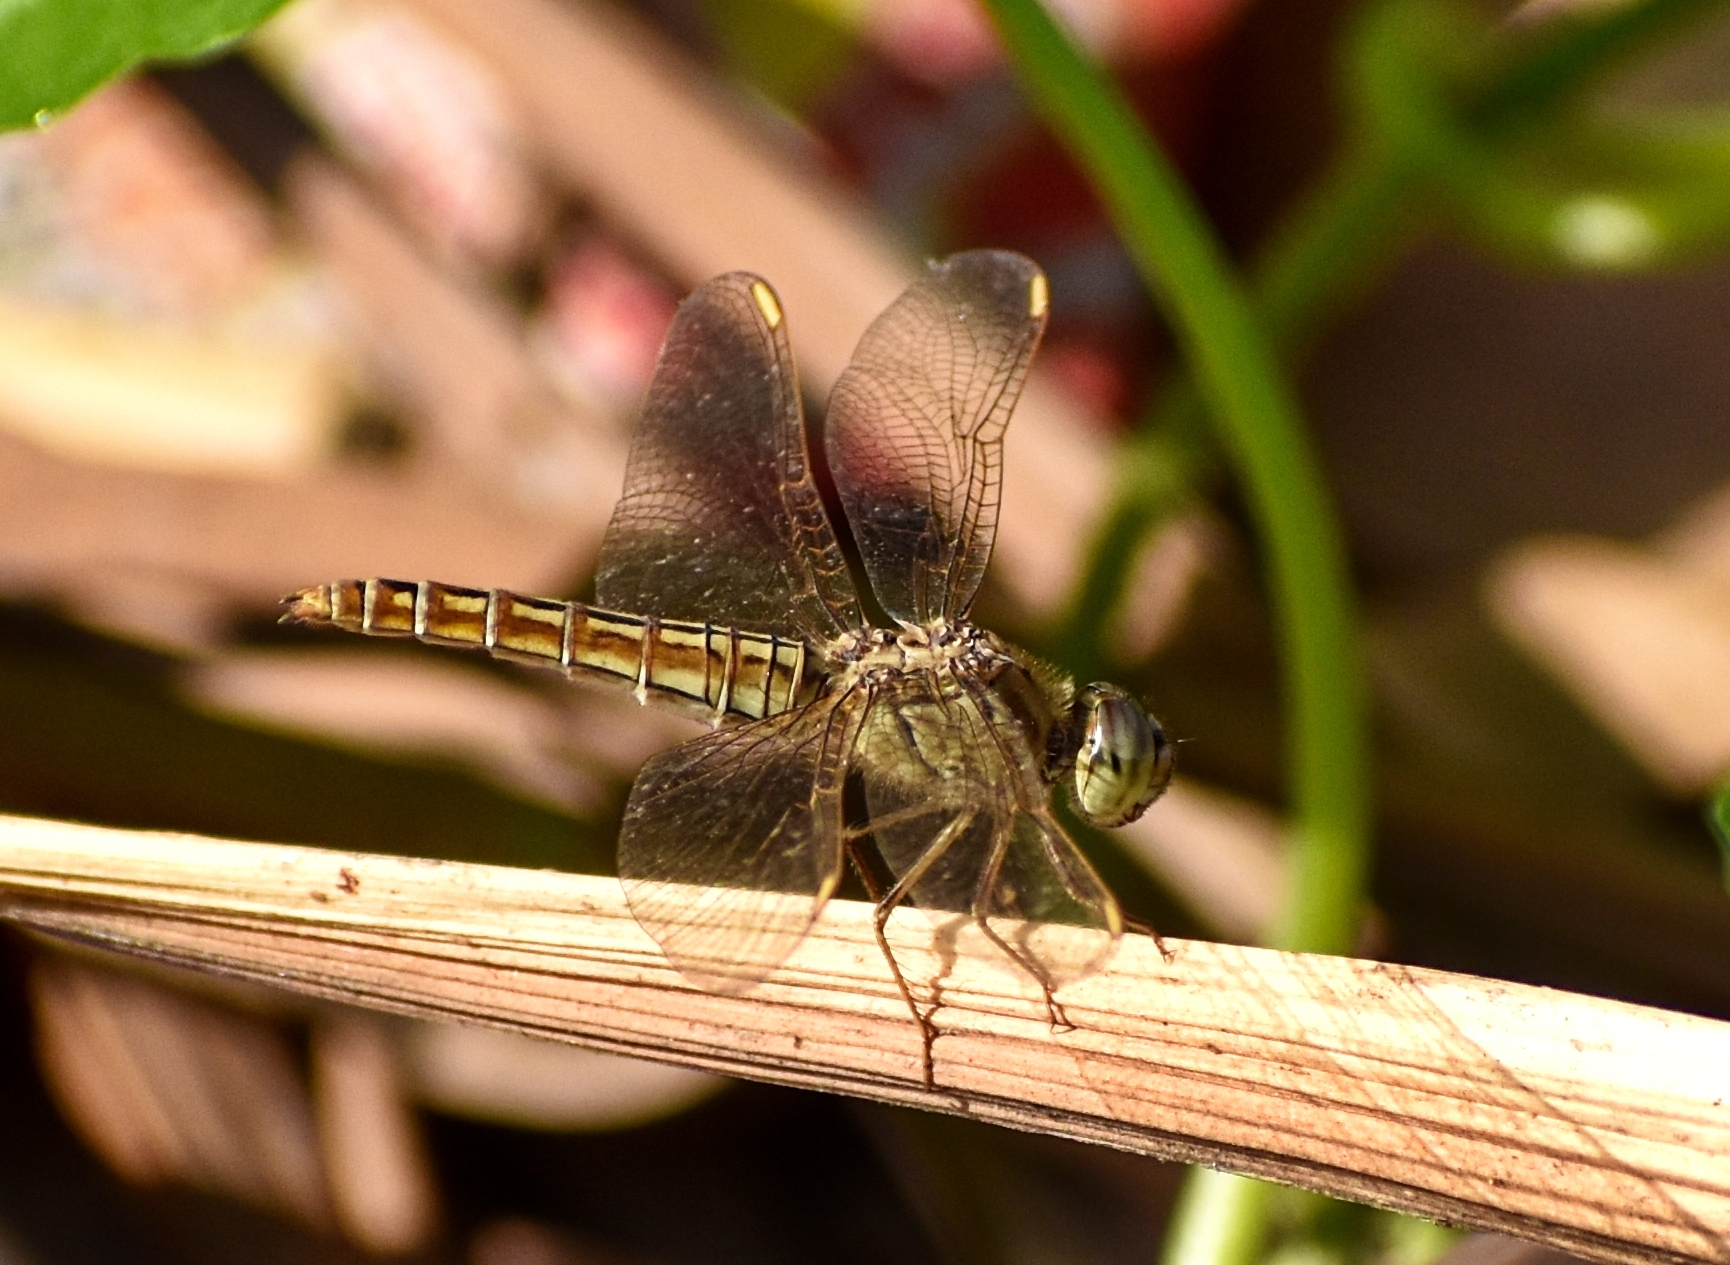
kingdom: Animalia
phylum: Arthropoda
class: Insecta
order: Odonata
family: Libellulidae
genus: Brachythemis
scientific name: Brachythemis contaminata
